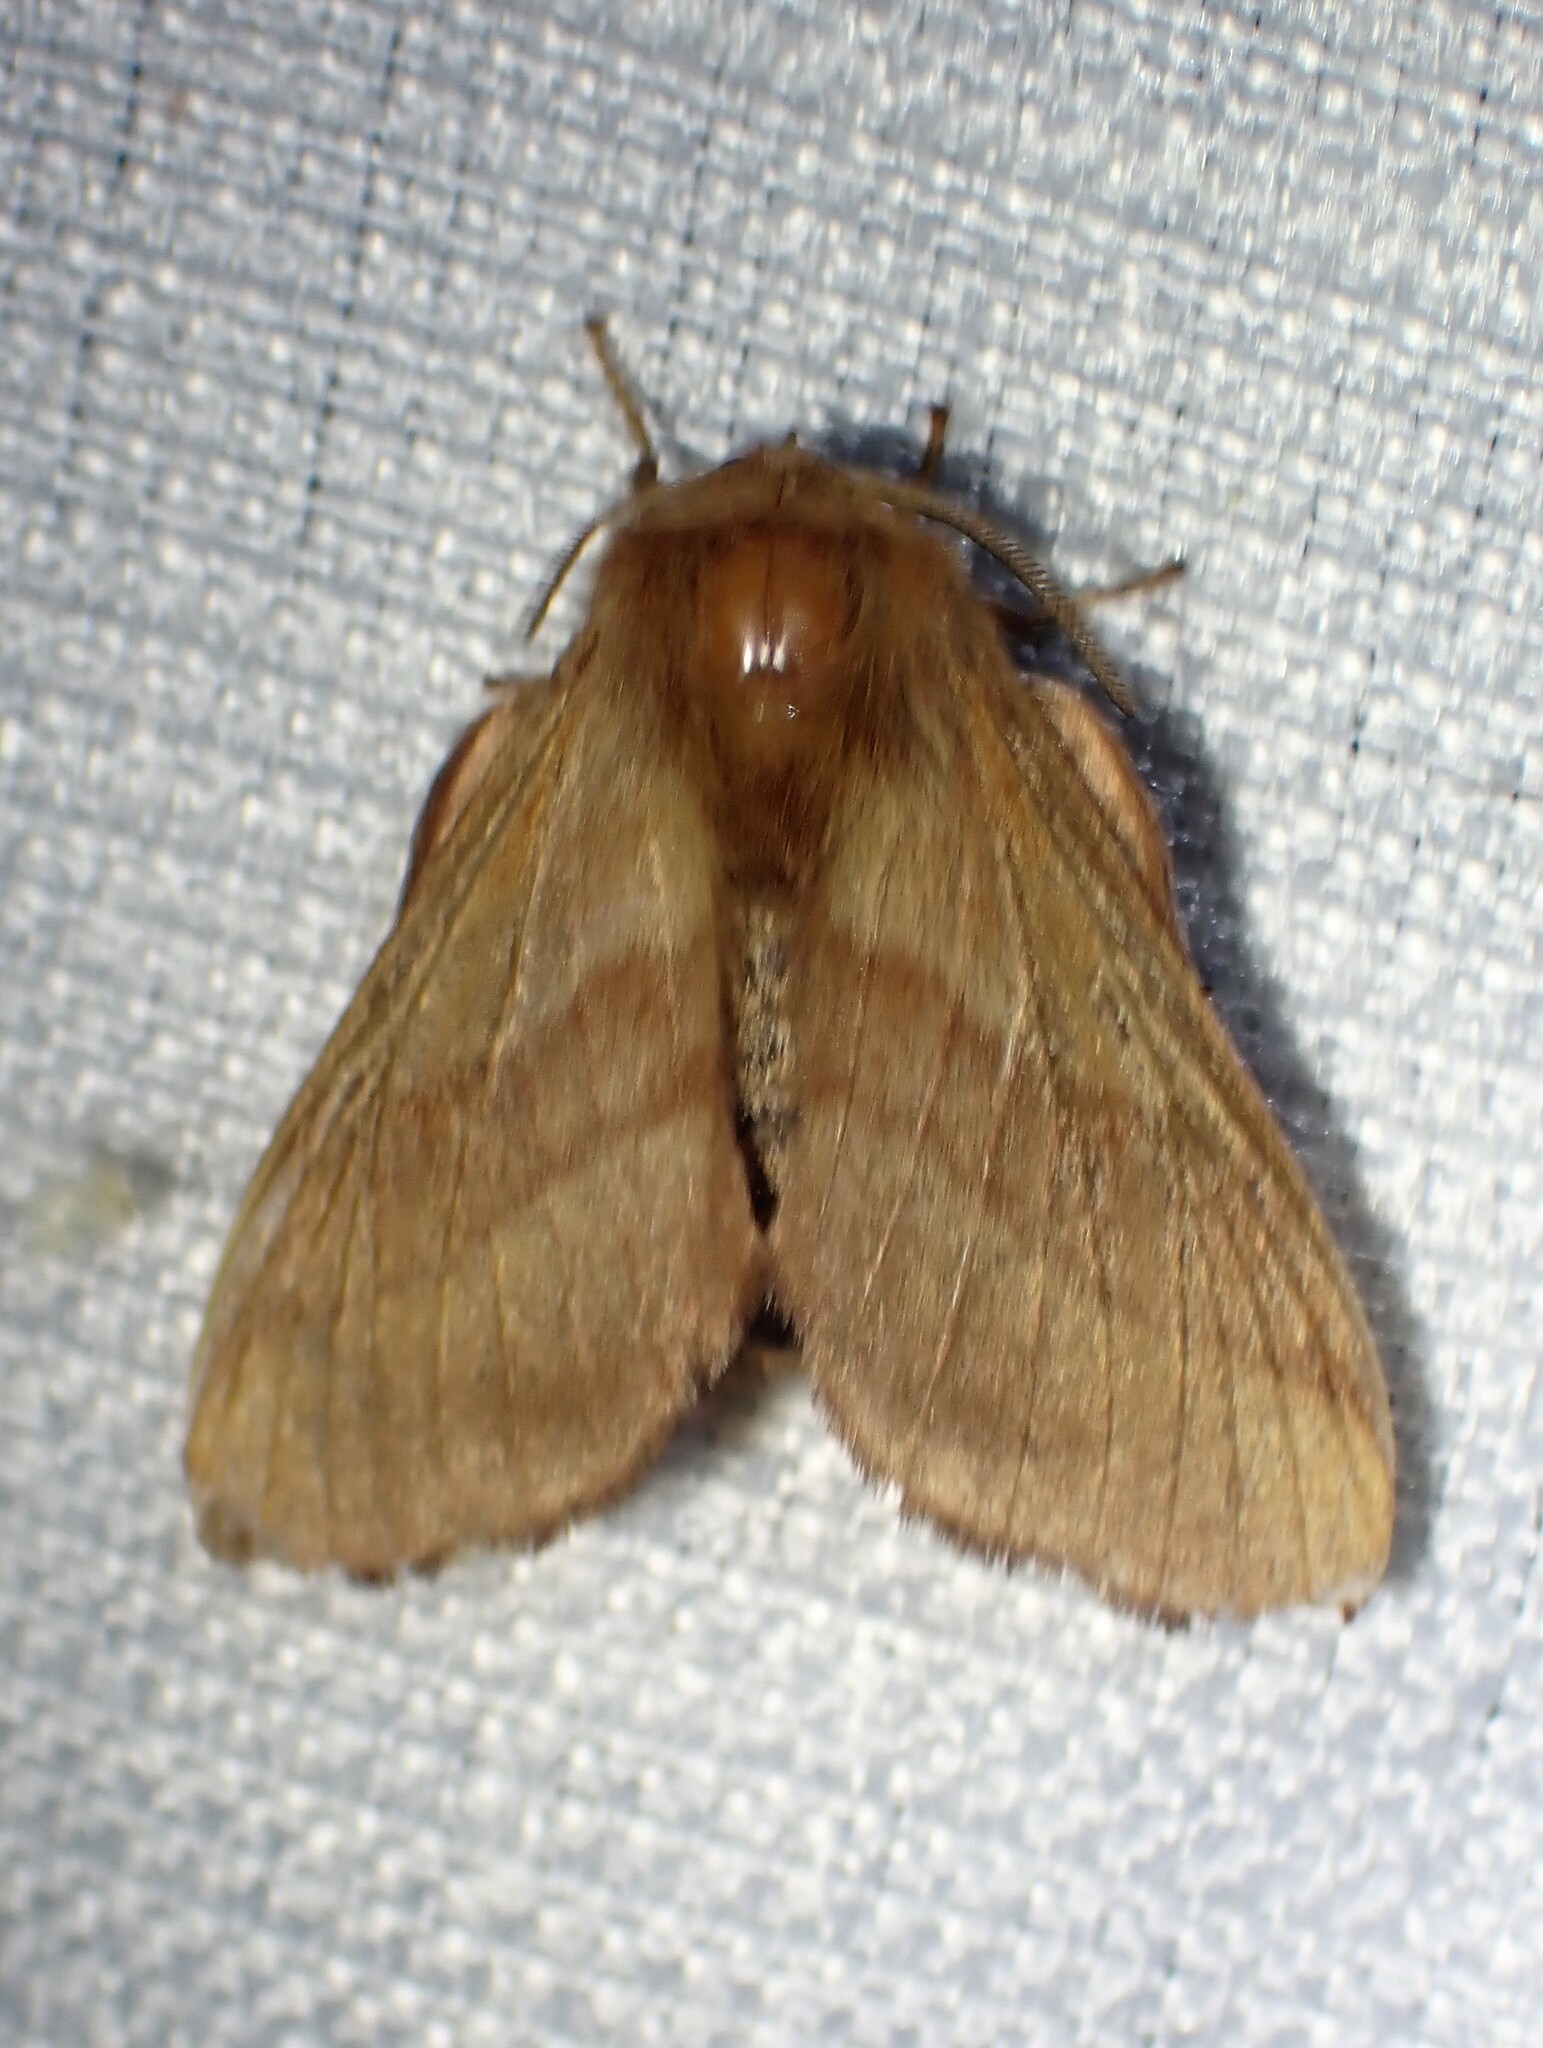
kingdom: Animalia
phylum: Arthropoda
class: Insecta
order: Lepidoptera
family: Lasiocampidae
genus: Malacosoma
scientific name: Malacosoma disstria
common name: Forest tent caterpillar
